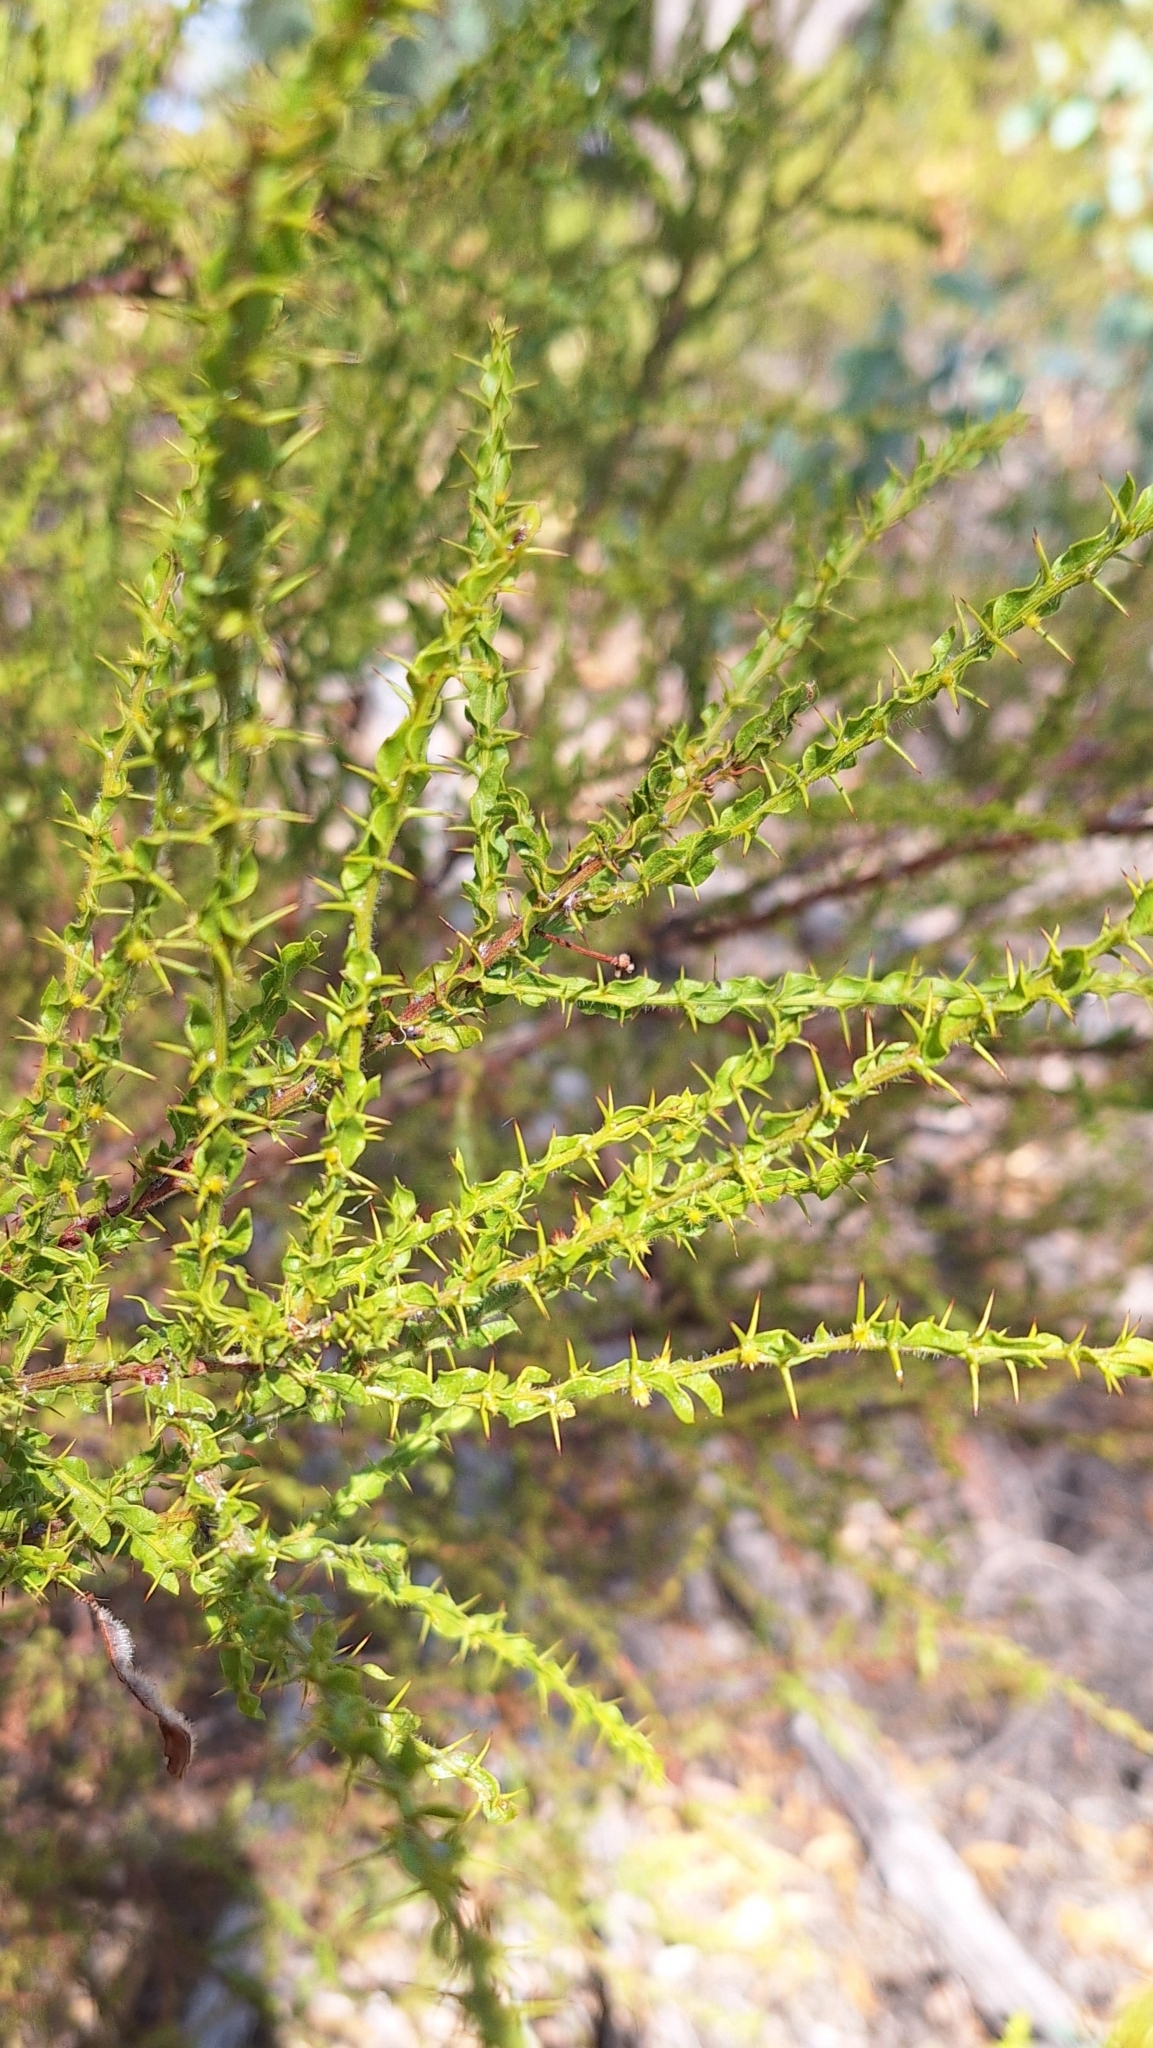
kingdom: Plantae
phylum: Tracheophyta
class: Magnoliopsida
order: Fabales
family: Fabaceae
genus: Acacia
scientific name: Acacia paradoxa
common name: Paradox acacia
